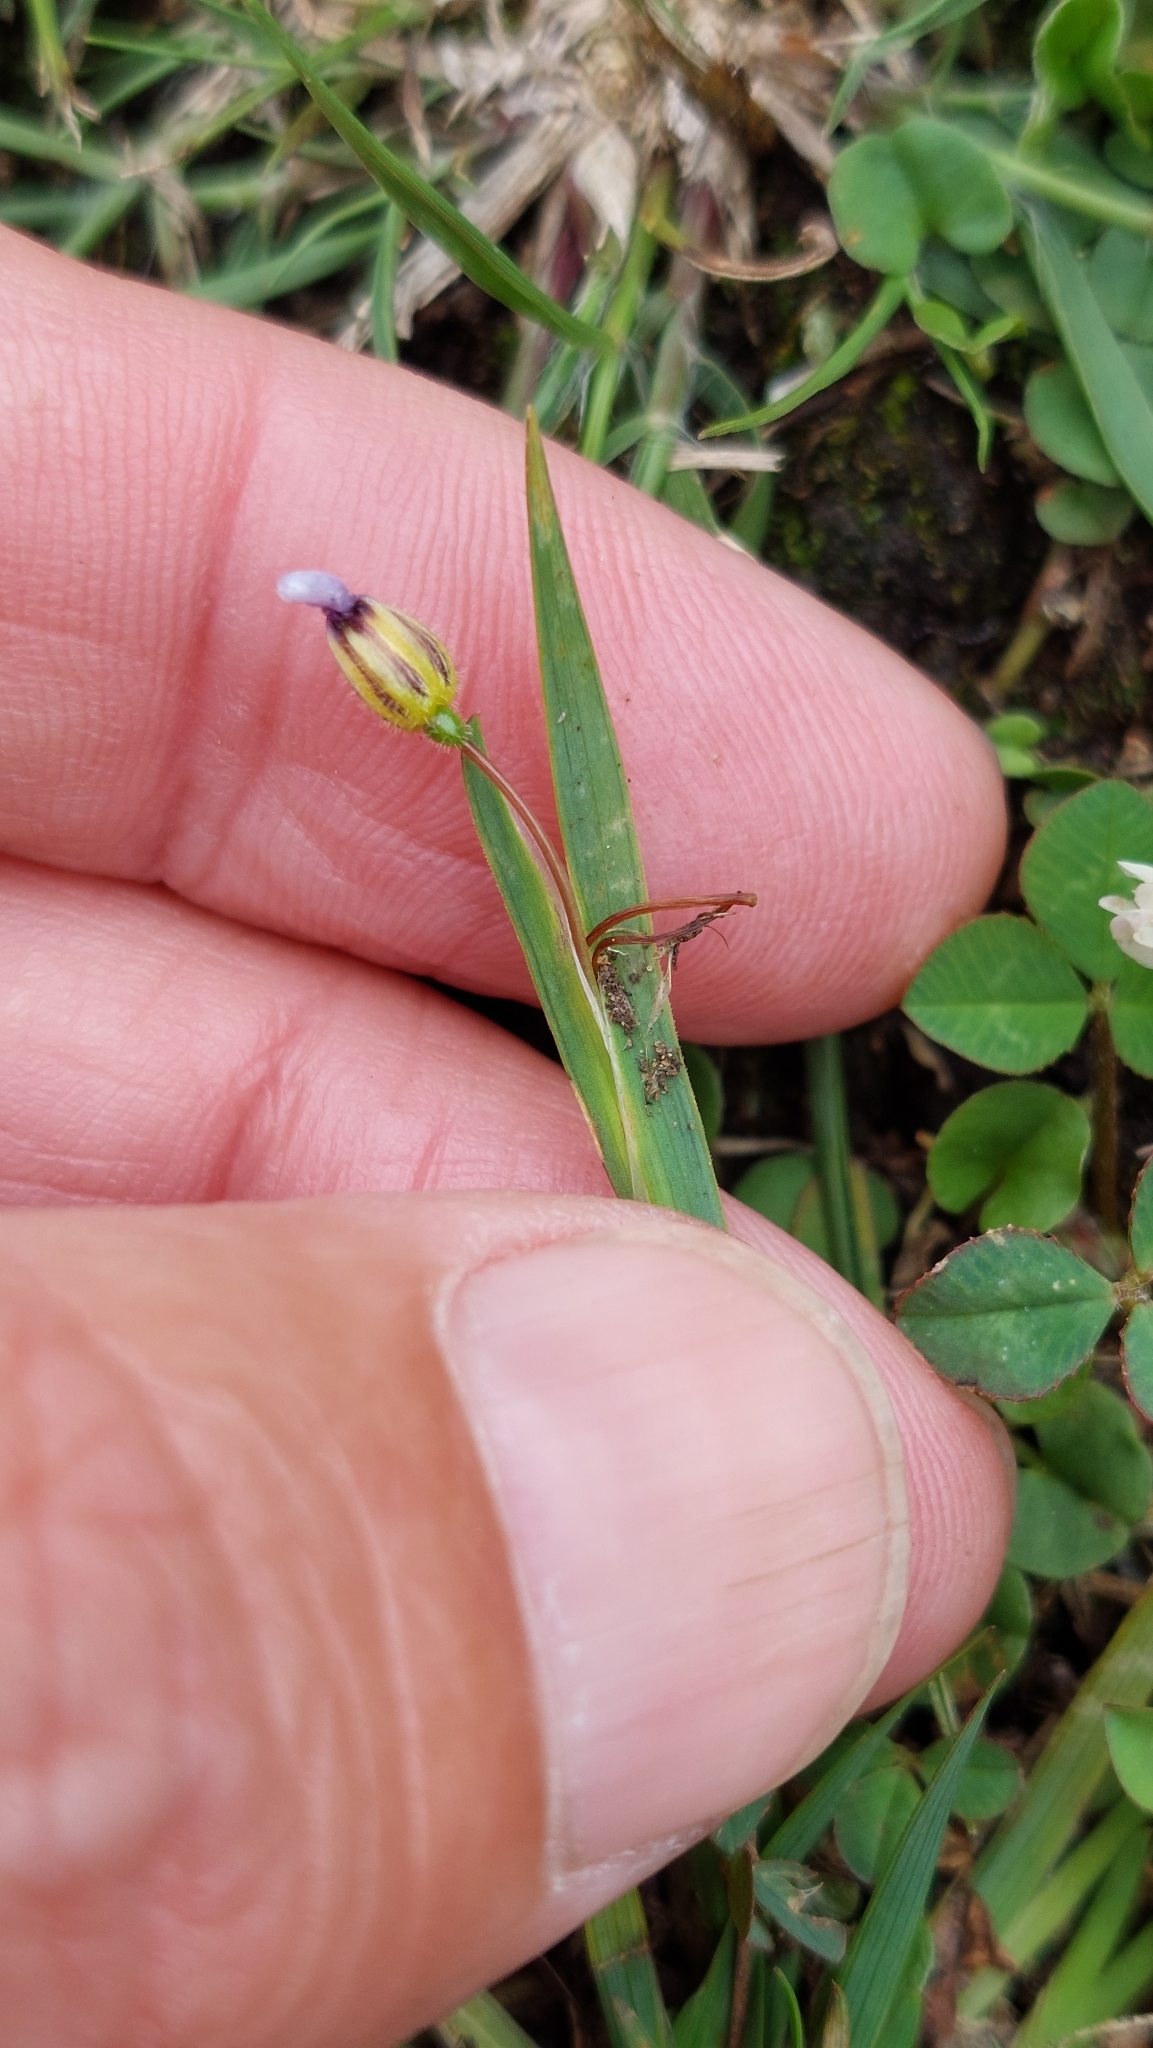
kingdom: Plantae
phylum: Tracheophyta
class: Liliopsida
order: Asparagales
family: Iridaceae
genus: Sisyrinchium
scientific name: Sisyrinchium micranthum
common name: Bermuda pigroot
